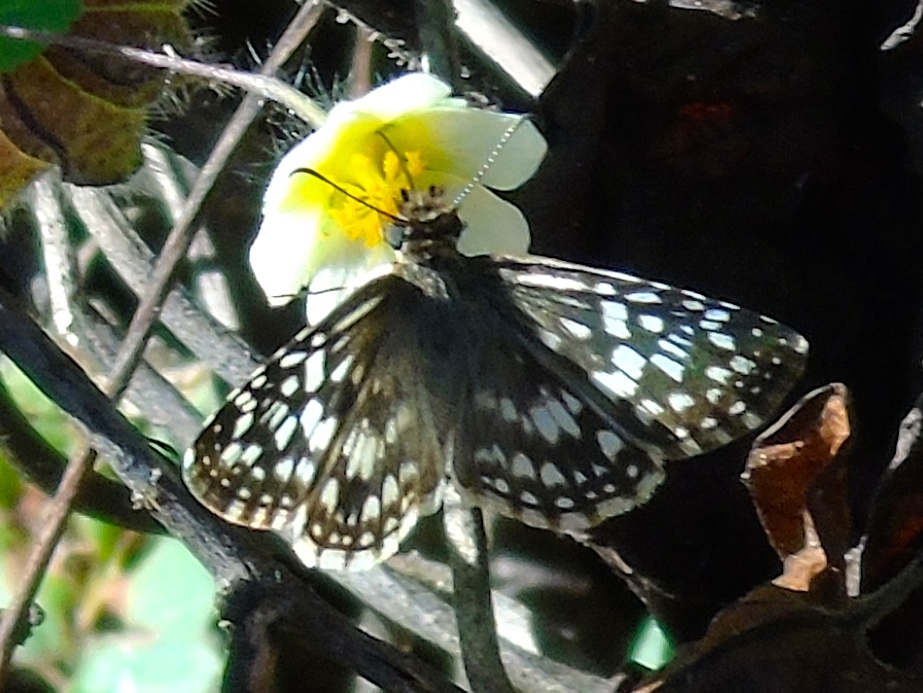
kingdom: Animalia
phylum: Arthropoda
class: Insecta
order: Lepidoptera
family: Hesperiidae
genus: Burnsius
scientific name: Burnsius
